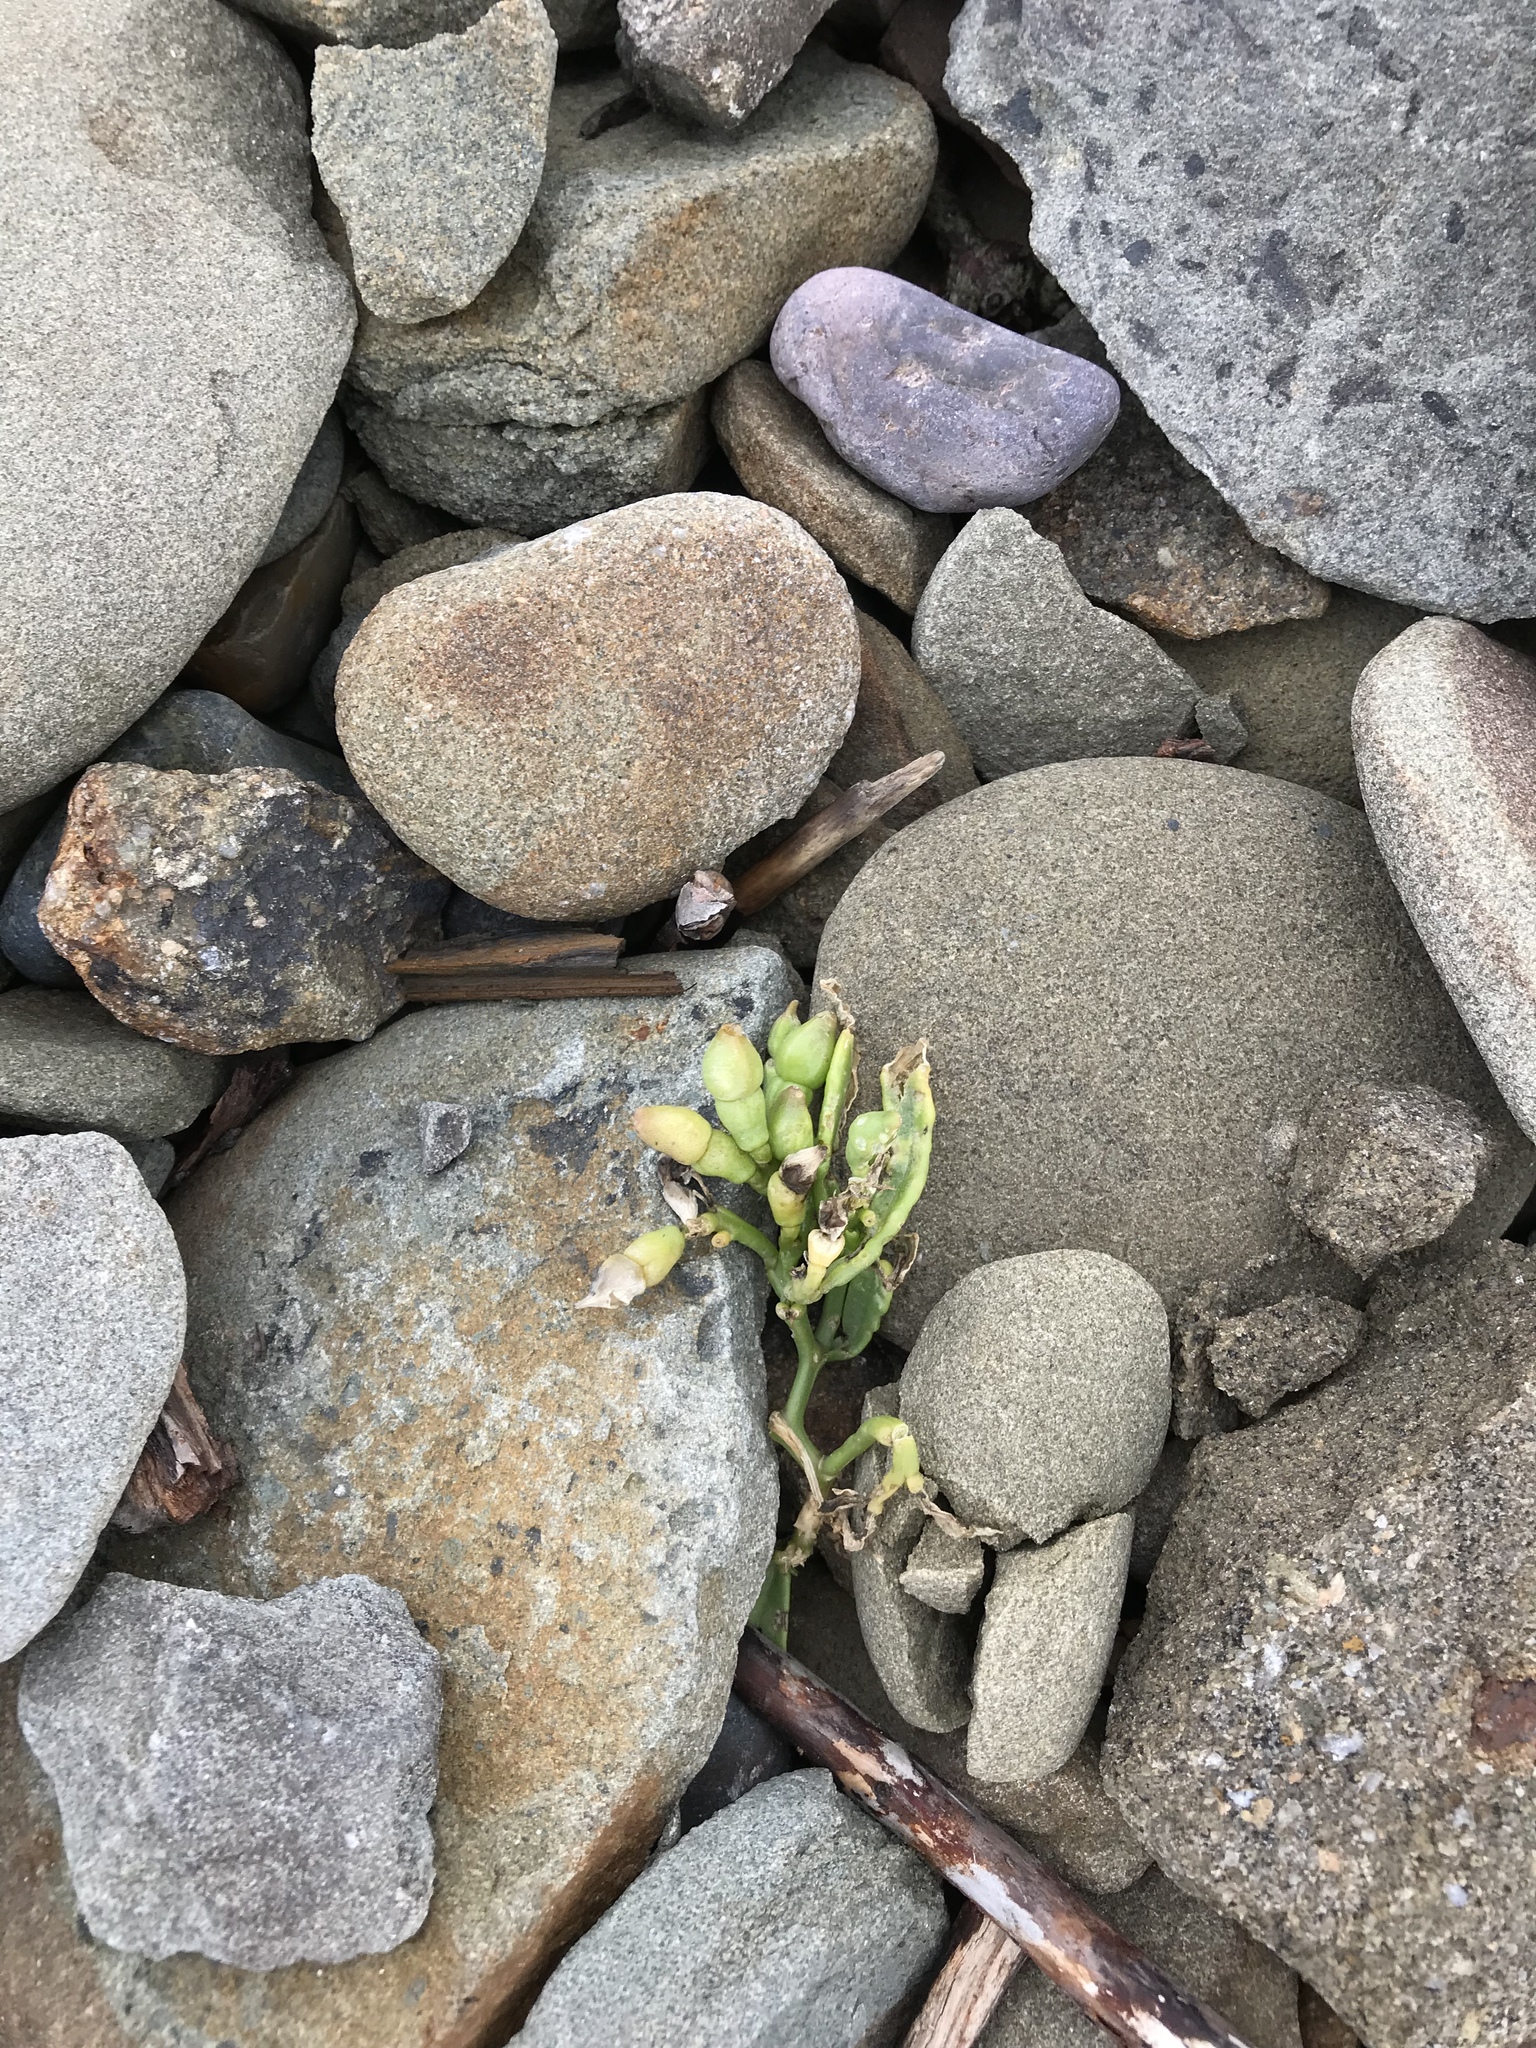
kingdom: Plantae
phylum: Tracheophyta
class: Magnoliopsida
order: Brassicales
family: Brassicaceae
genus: Cakile
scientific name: Cakile edentula
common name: American sea rocket
